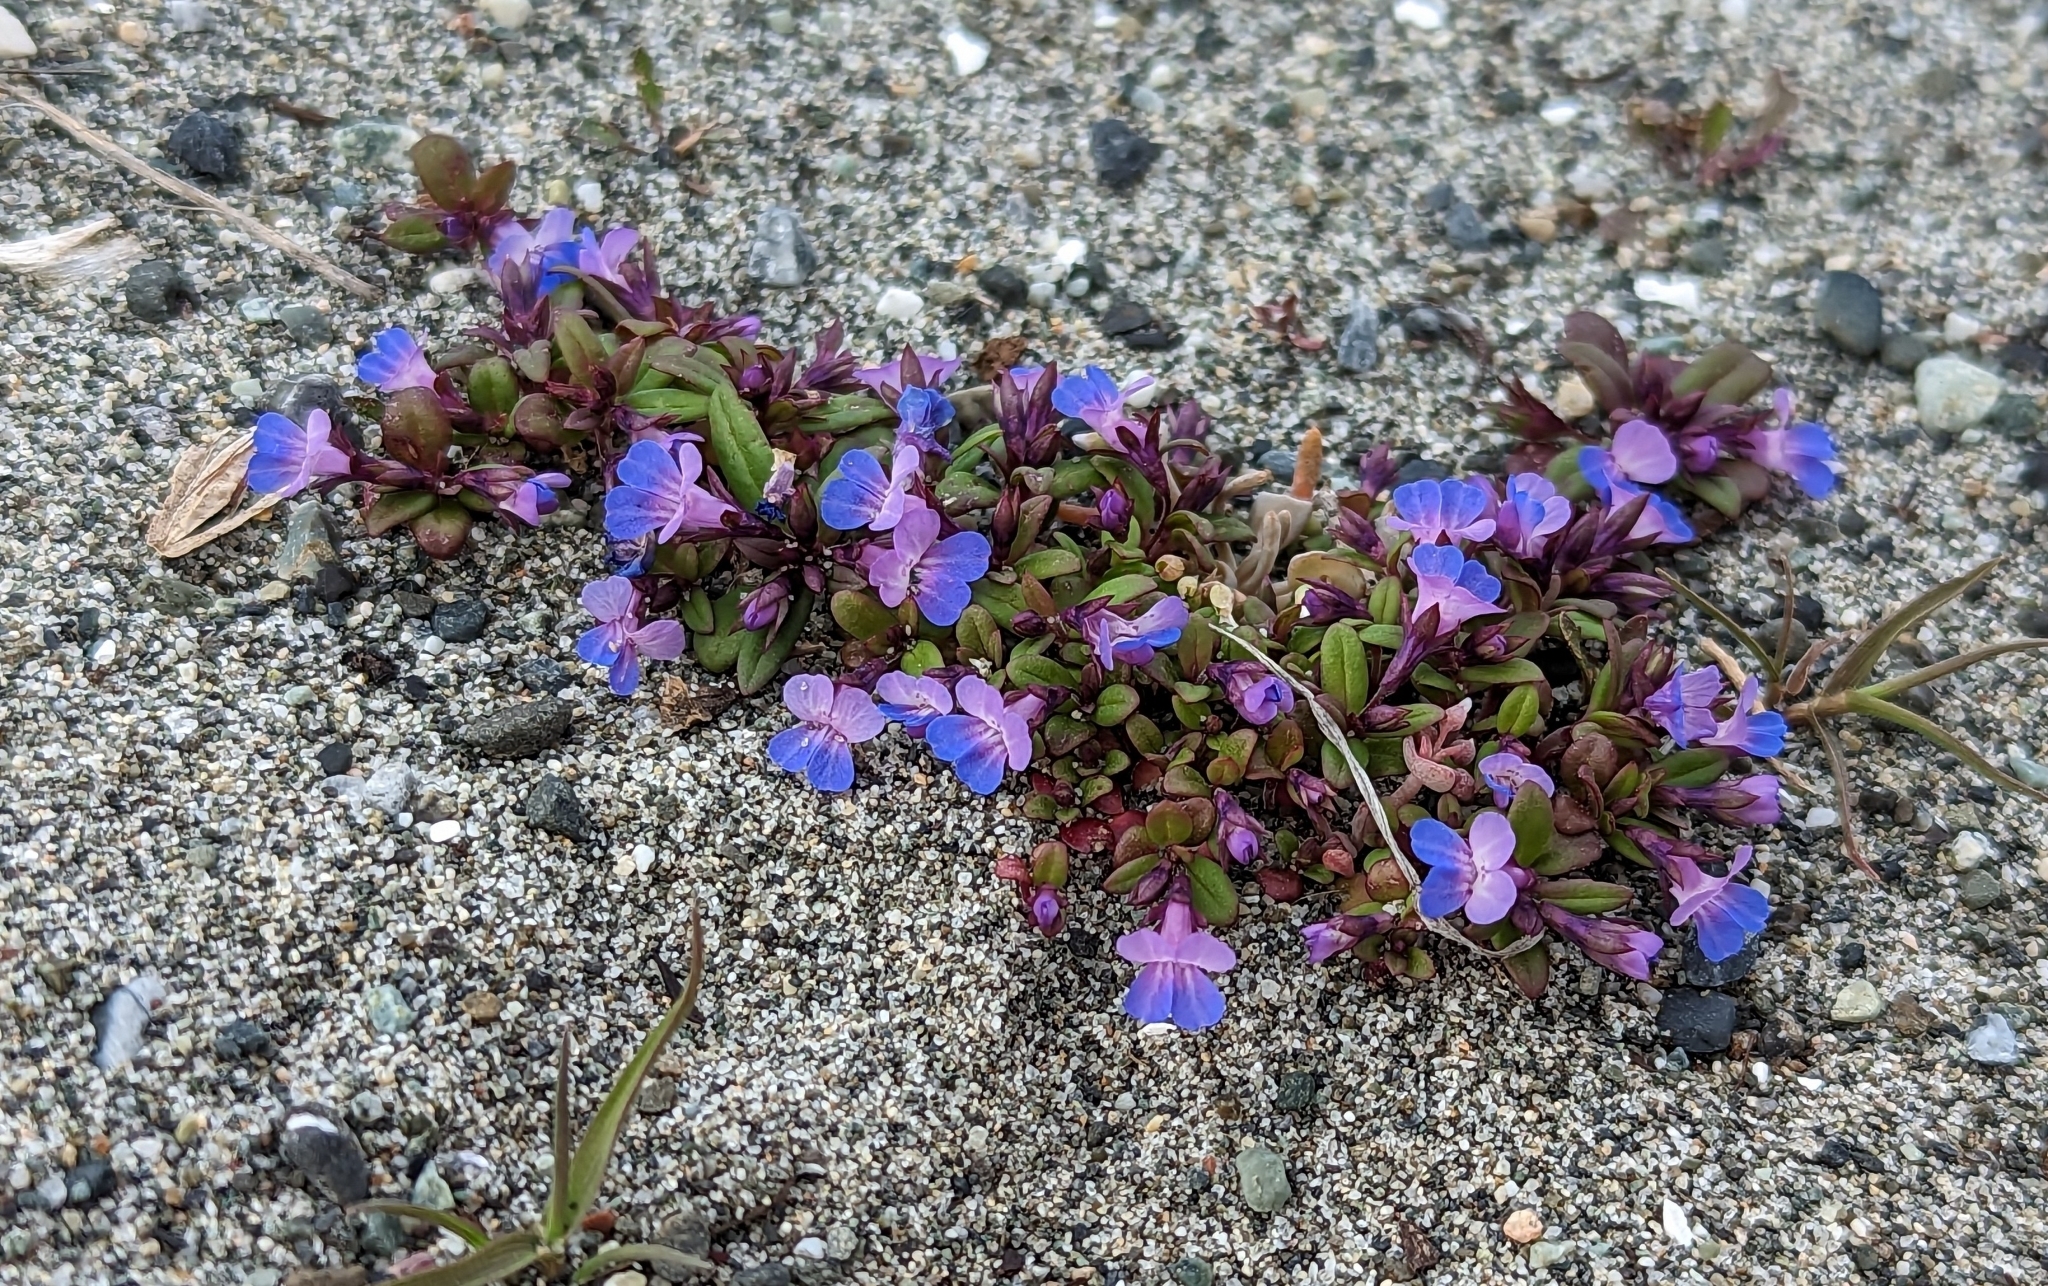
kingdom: Plantae
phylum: Tracheophyta
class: Magnoliopsida
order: Lamiales
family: Plantaginaceae
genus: Collinsia
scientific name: Collinsia parviflora
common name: Blue-lips
